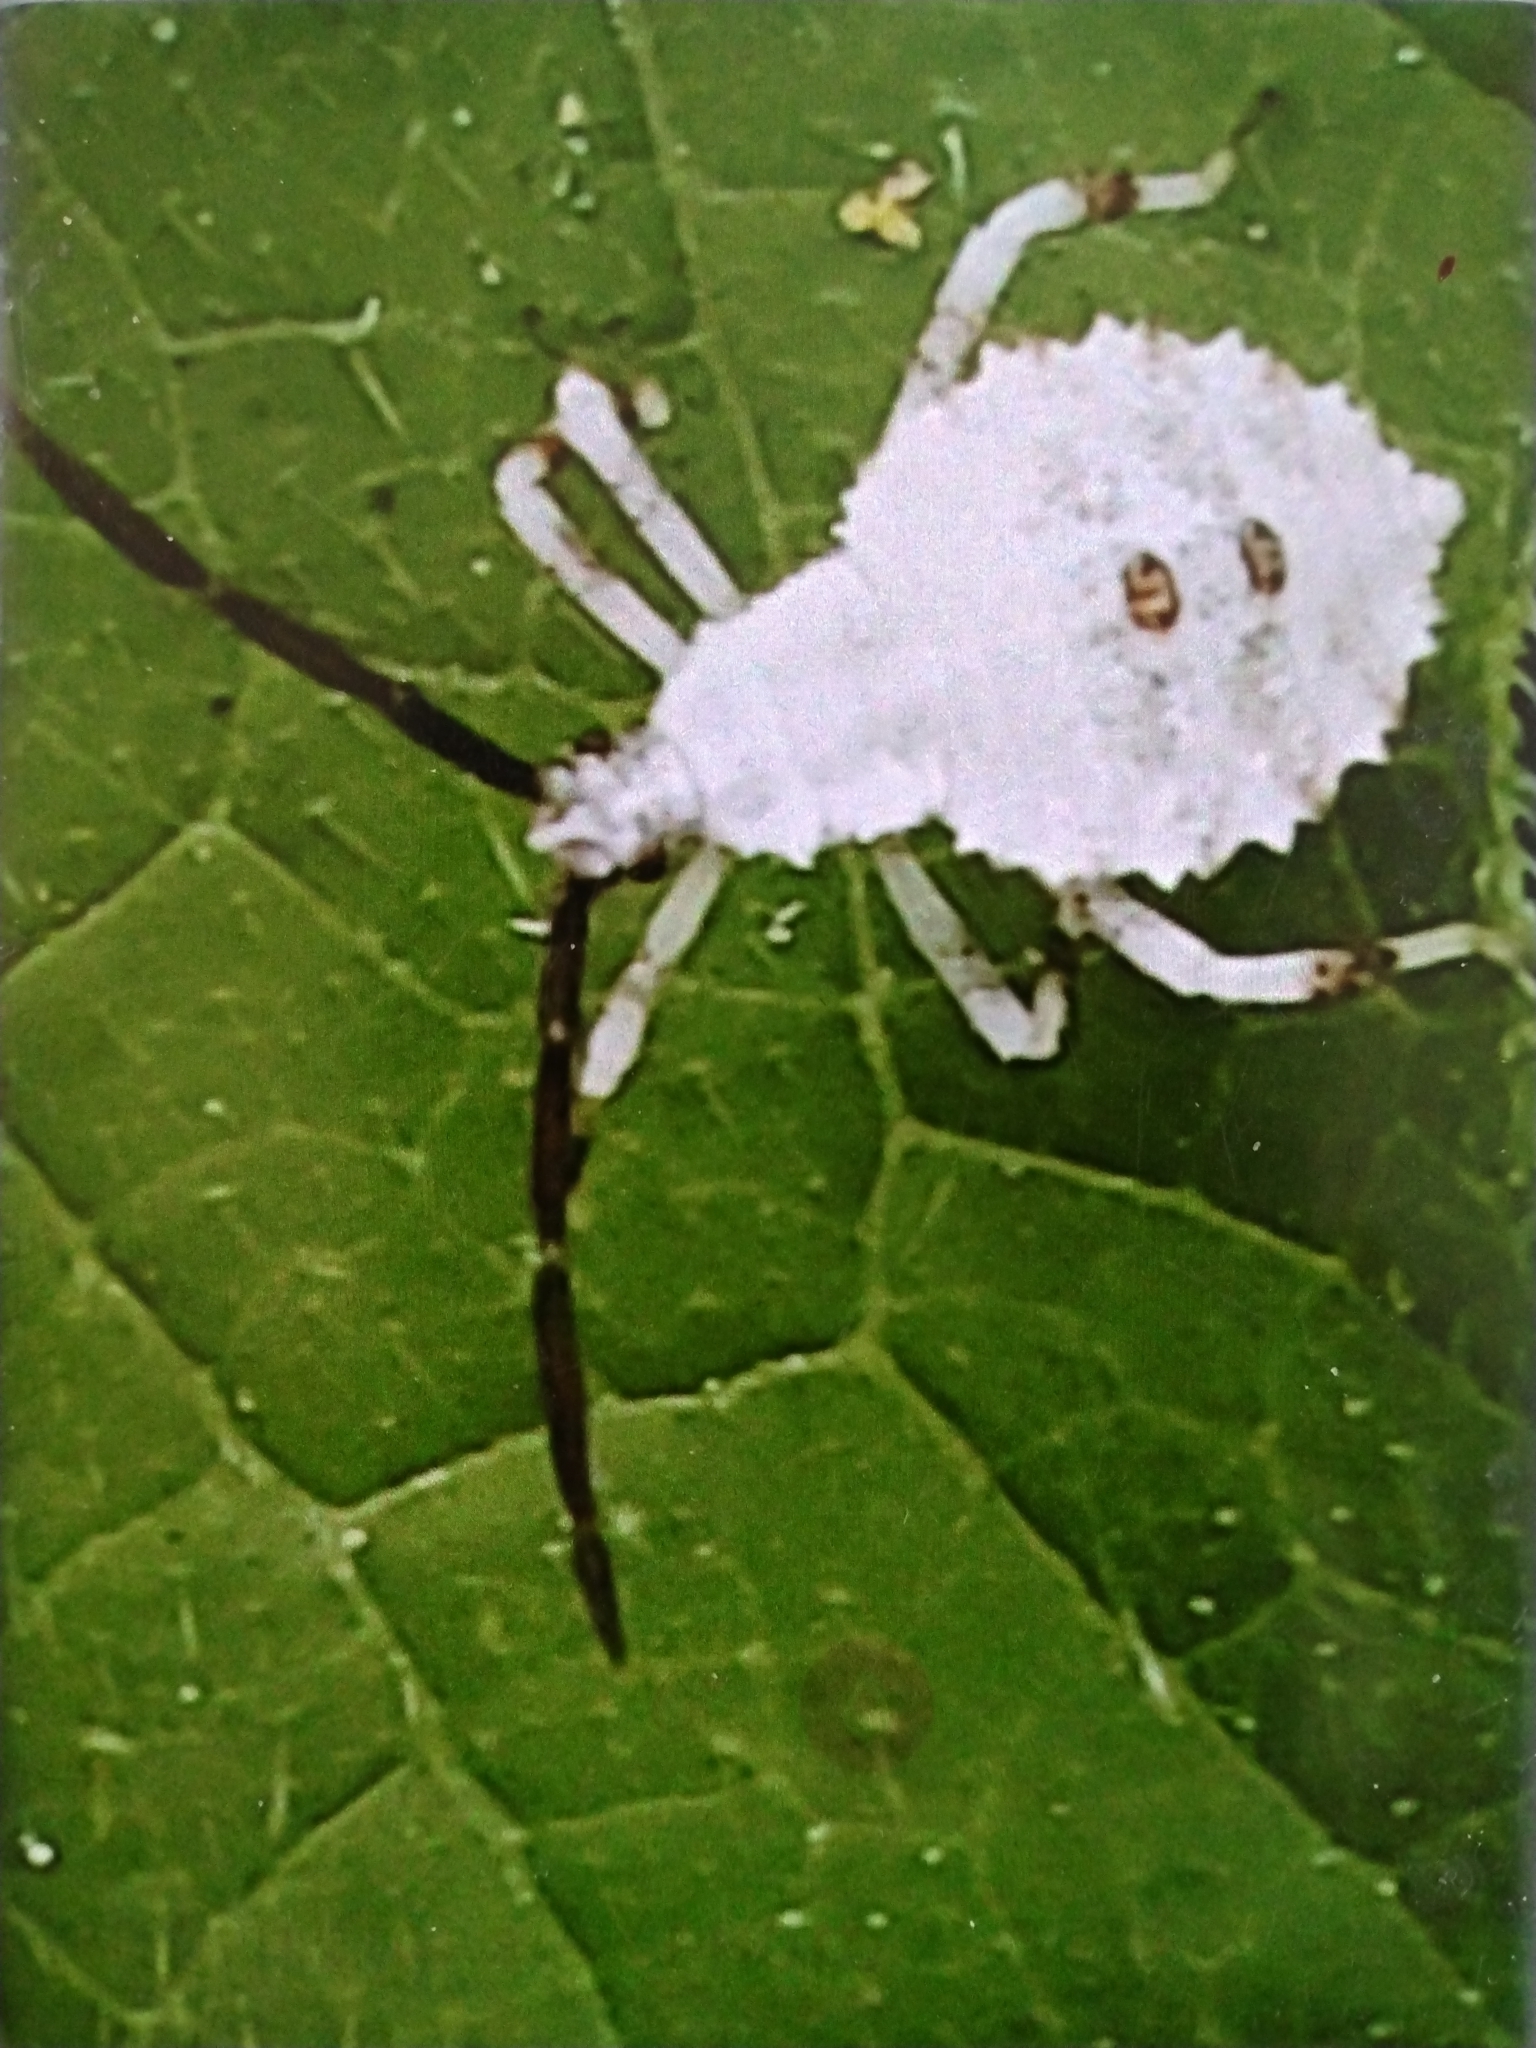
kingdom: Animalia
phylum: Arthropoda
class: Insecta
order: Hemiptera
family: Coreidae
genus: Anasa
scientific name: Anasa armigera
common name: Horned squash bug
